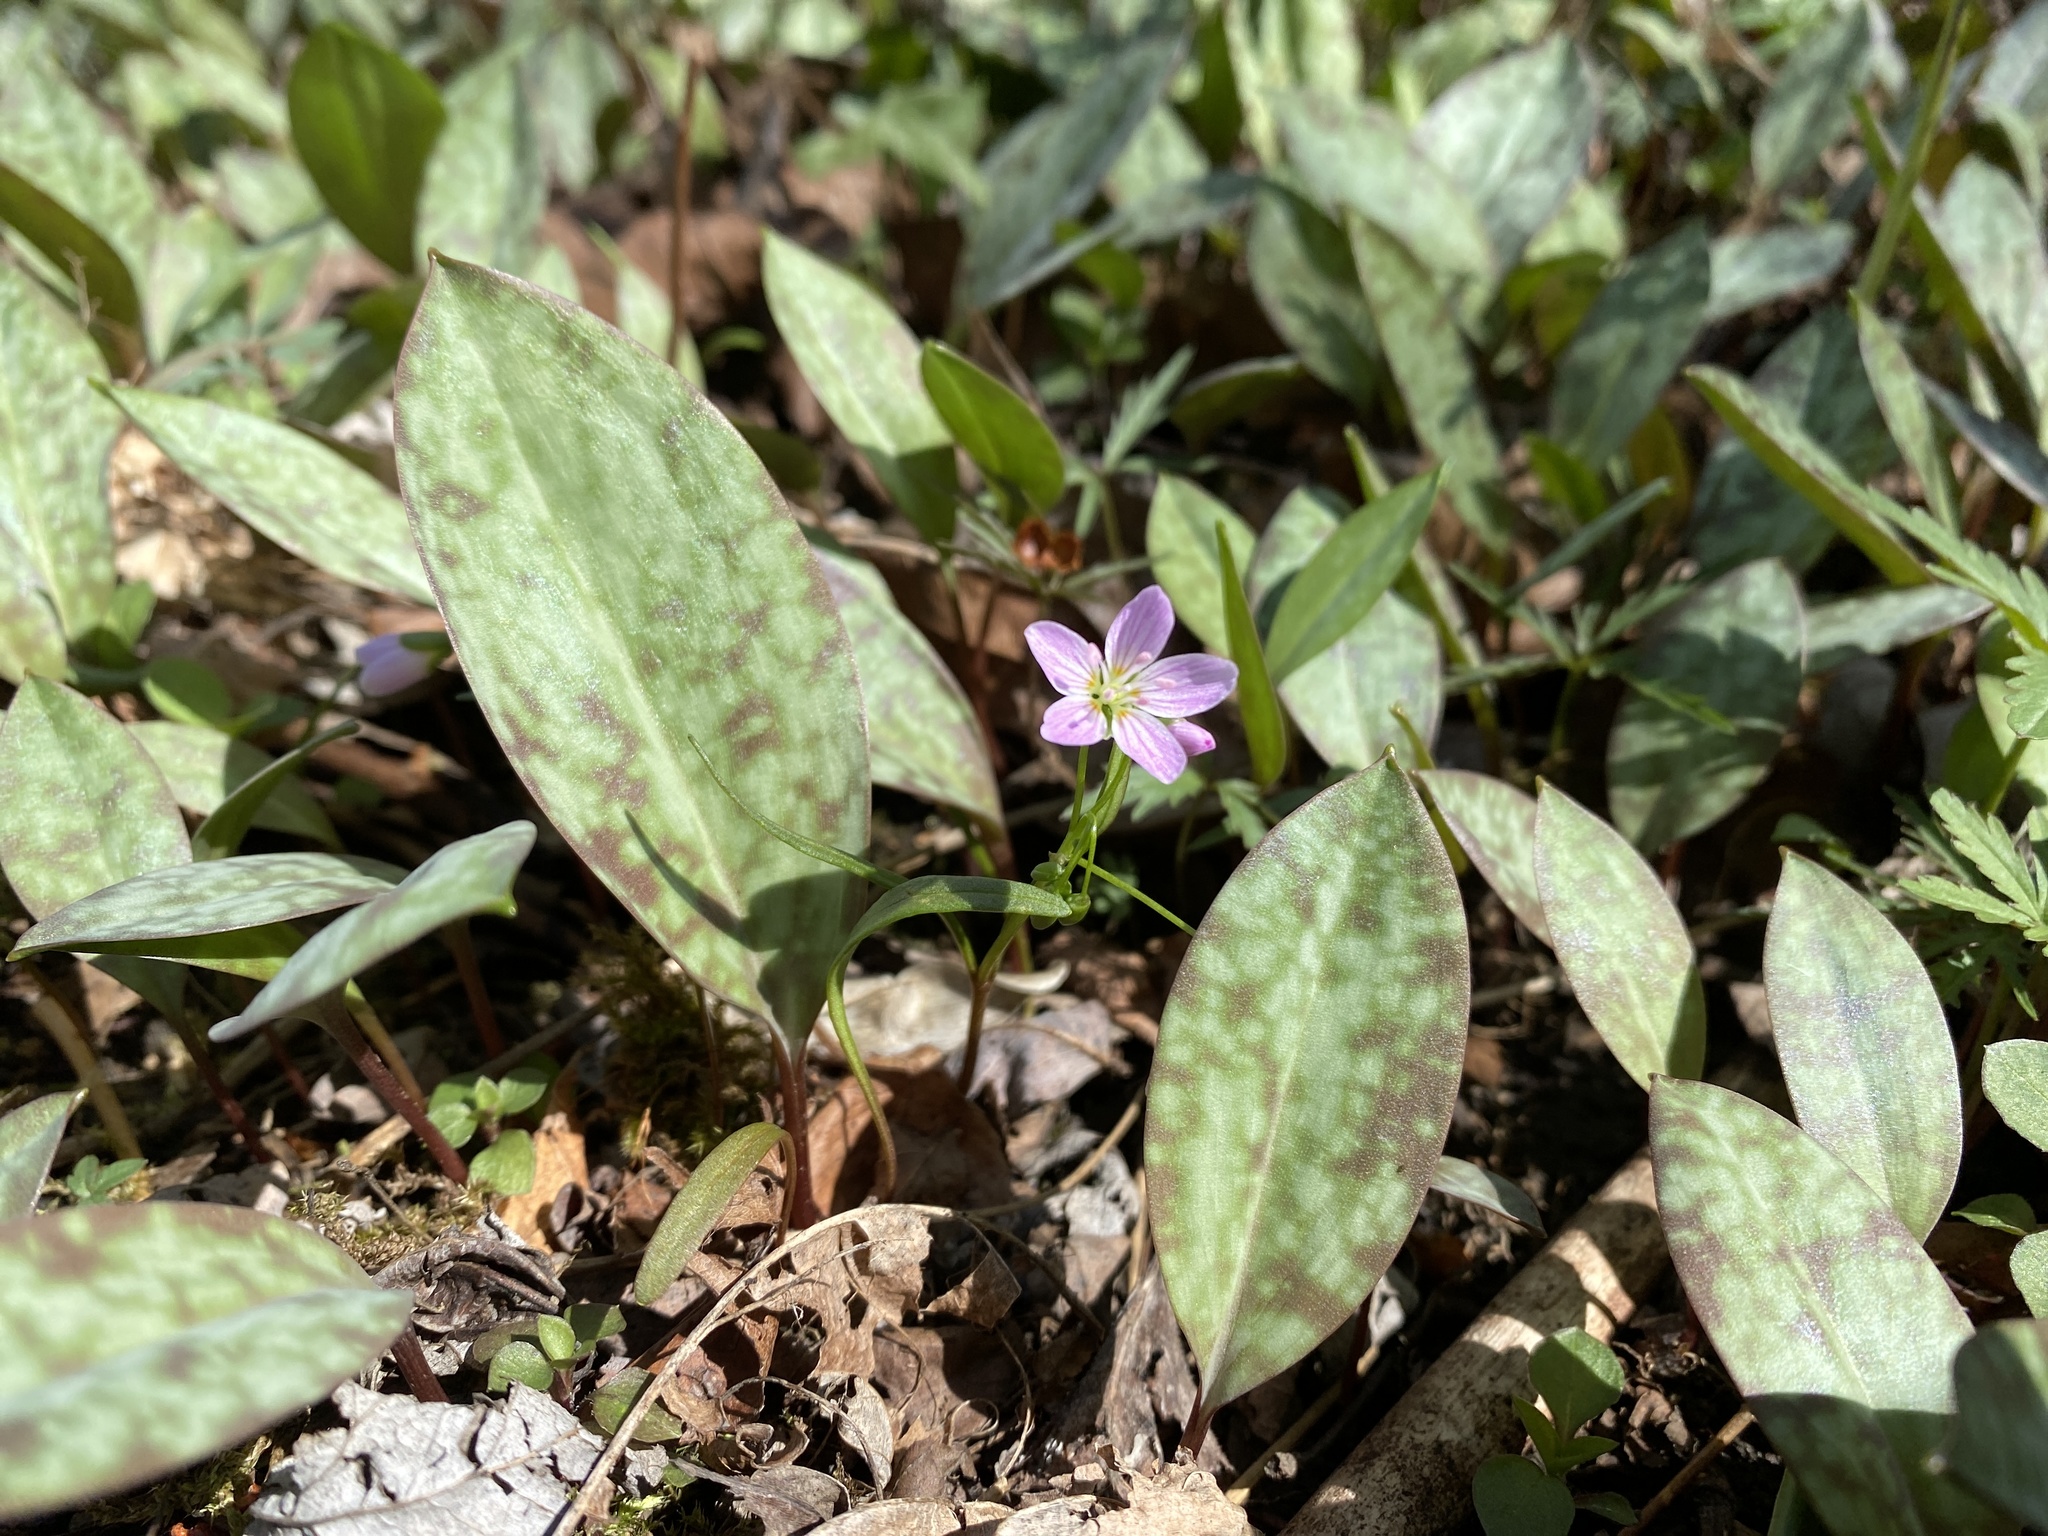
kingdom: Plantae
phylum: Tracheophyta
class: Magnoliopsida
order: Caryophyllales
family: Montiaceae
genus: Claytonia
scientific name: Claytonia virginica
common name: Virginia springbeauty
